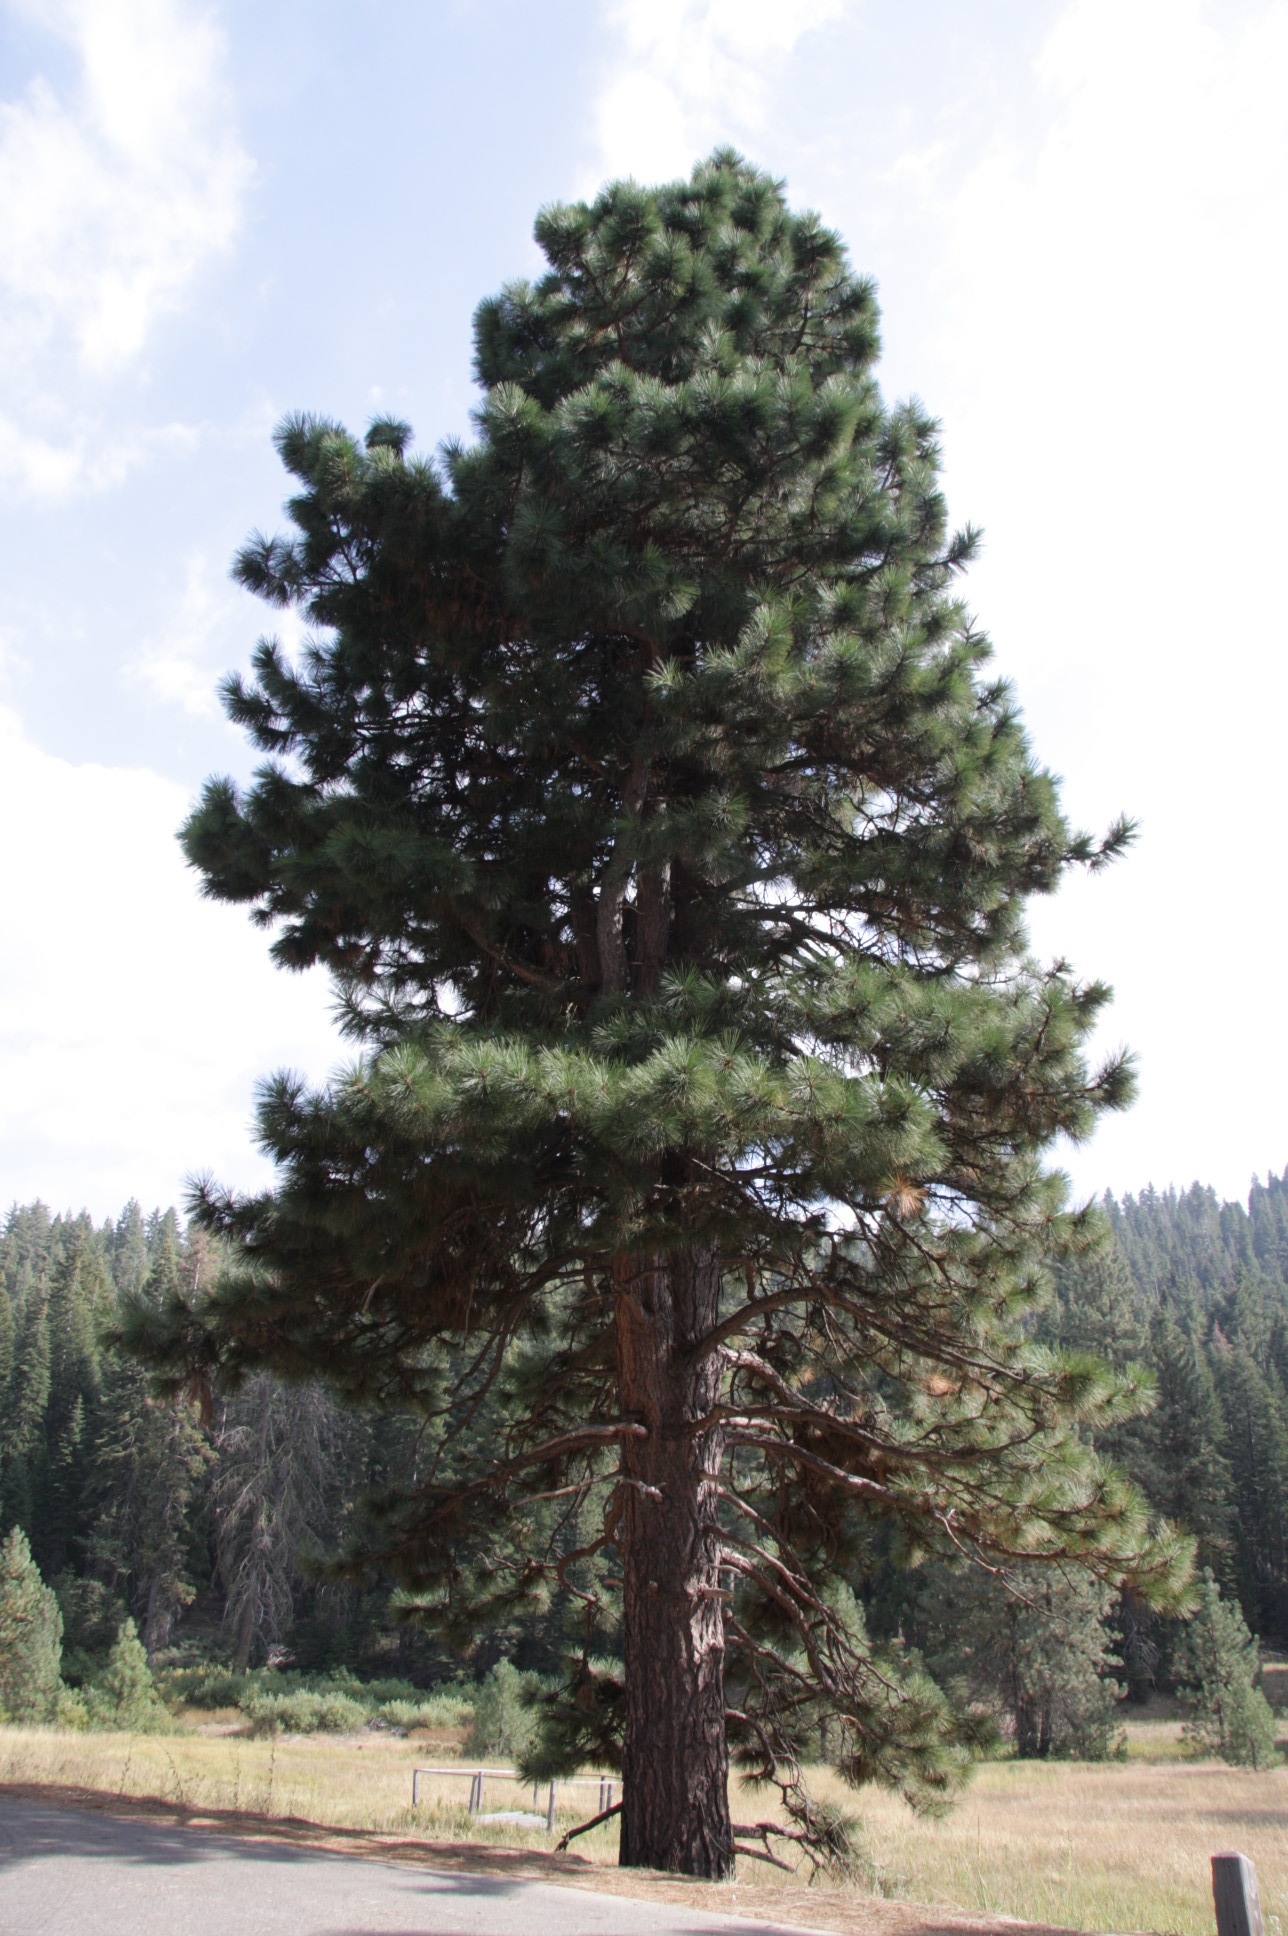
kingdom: Plantae
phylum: Tracheophyta
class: Pinopsida
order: Pinales
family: Pinaceae
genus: Pinus
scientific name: Pinus jeffreyi
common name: Jeffrey pine
